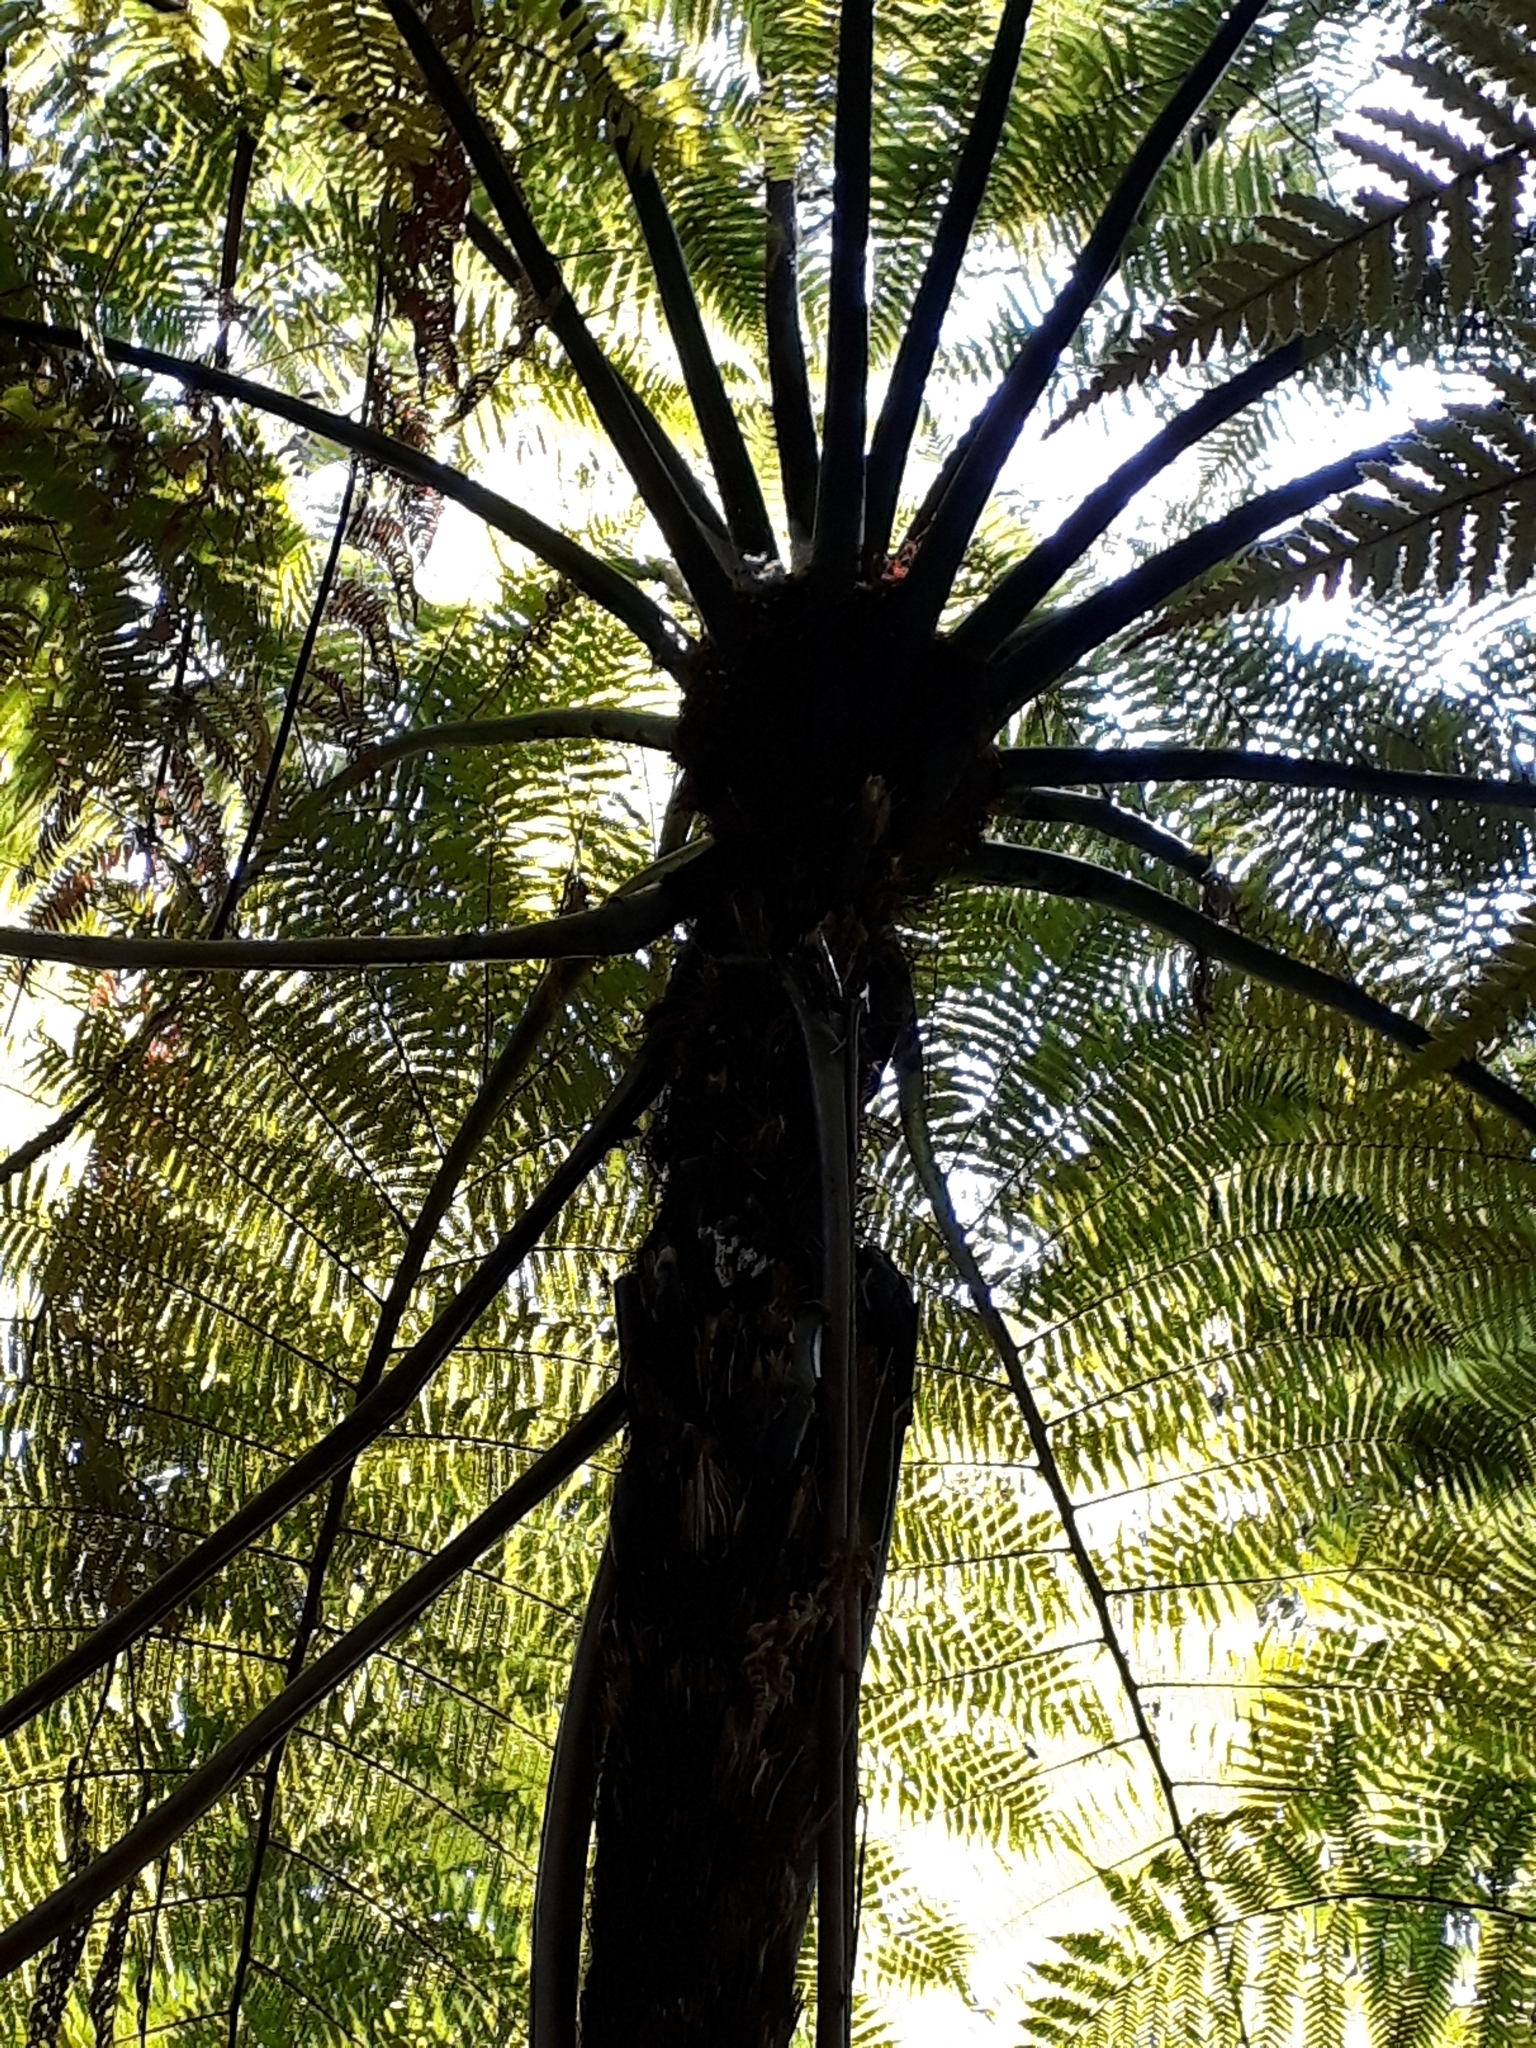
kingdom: Plantae
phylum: Tracheophyta
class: Polypodiopsida
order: Cyatheales
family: Cyatheaceae
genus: Sphaeropteris
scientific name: Sphaeropteris medullaris
